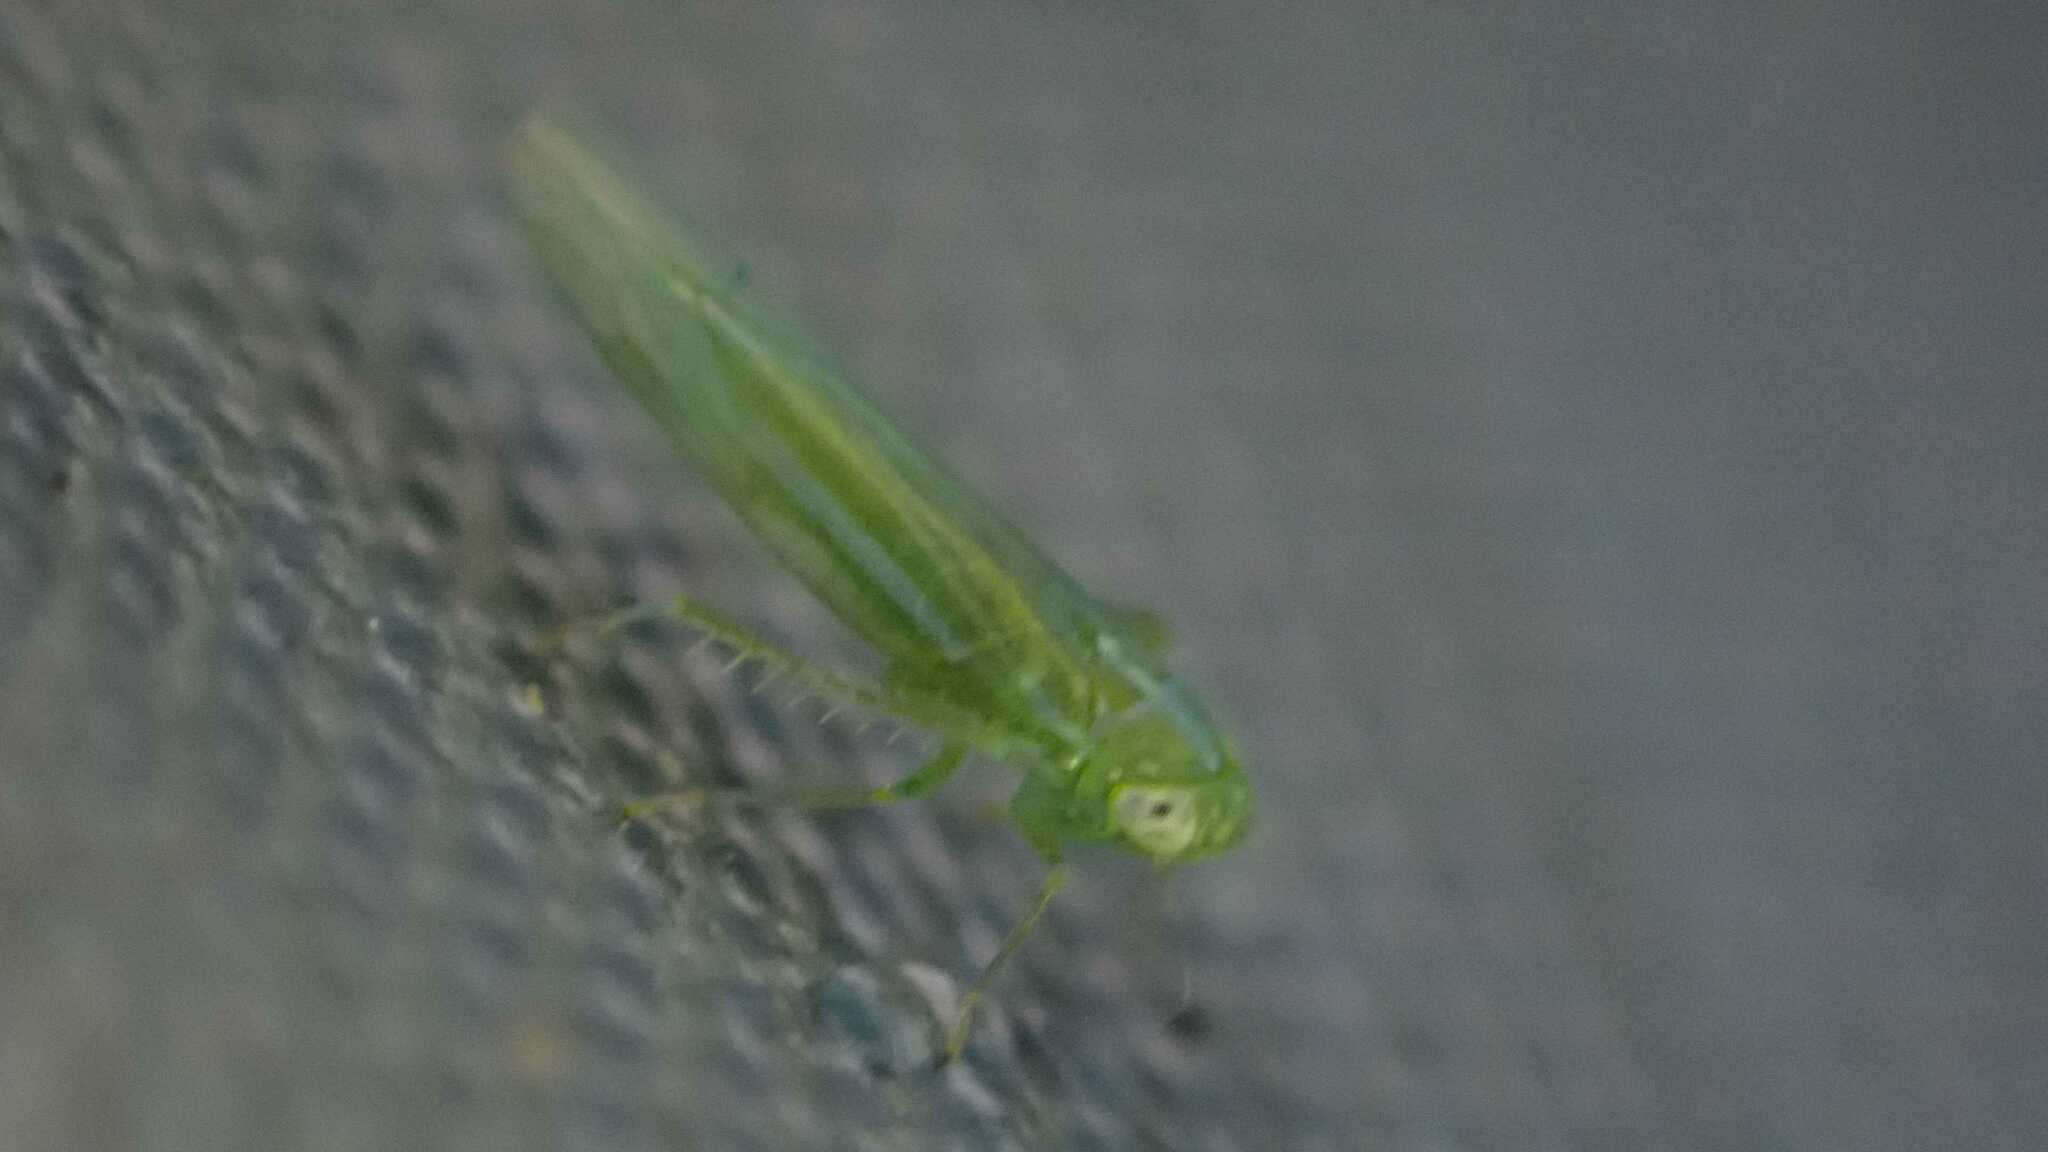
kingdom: Animalia
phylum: Arthropoda
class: Insecta
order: Hemiptera
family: Cicadellidae
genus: Hebata
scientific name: Hebata vitis
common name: The smaller green leafhopper
